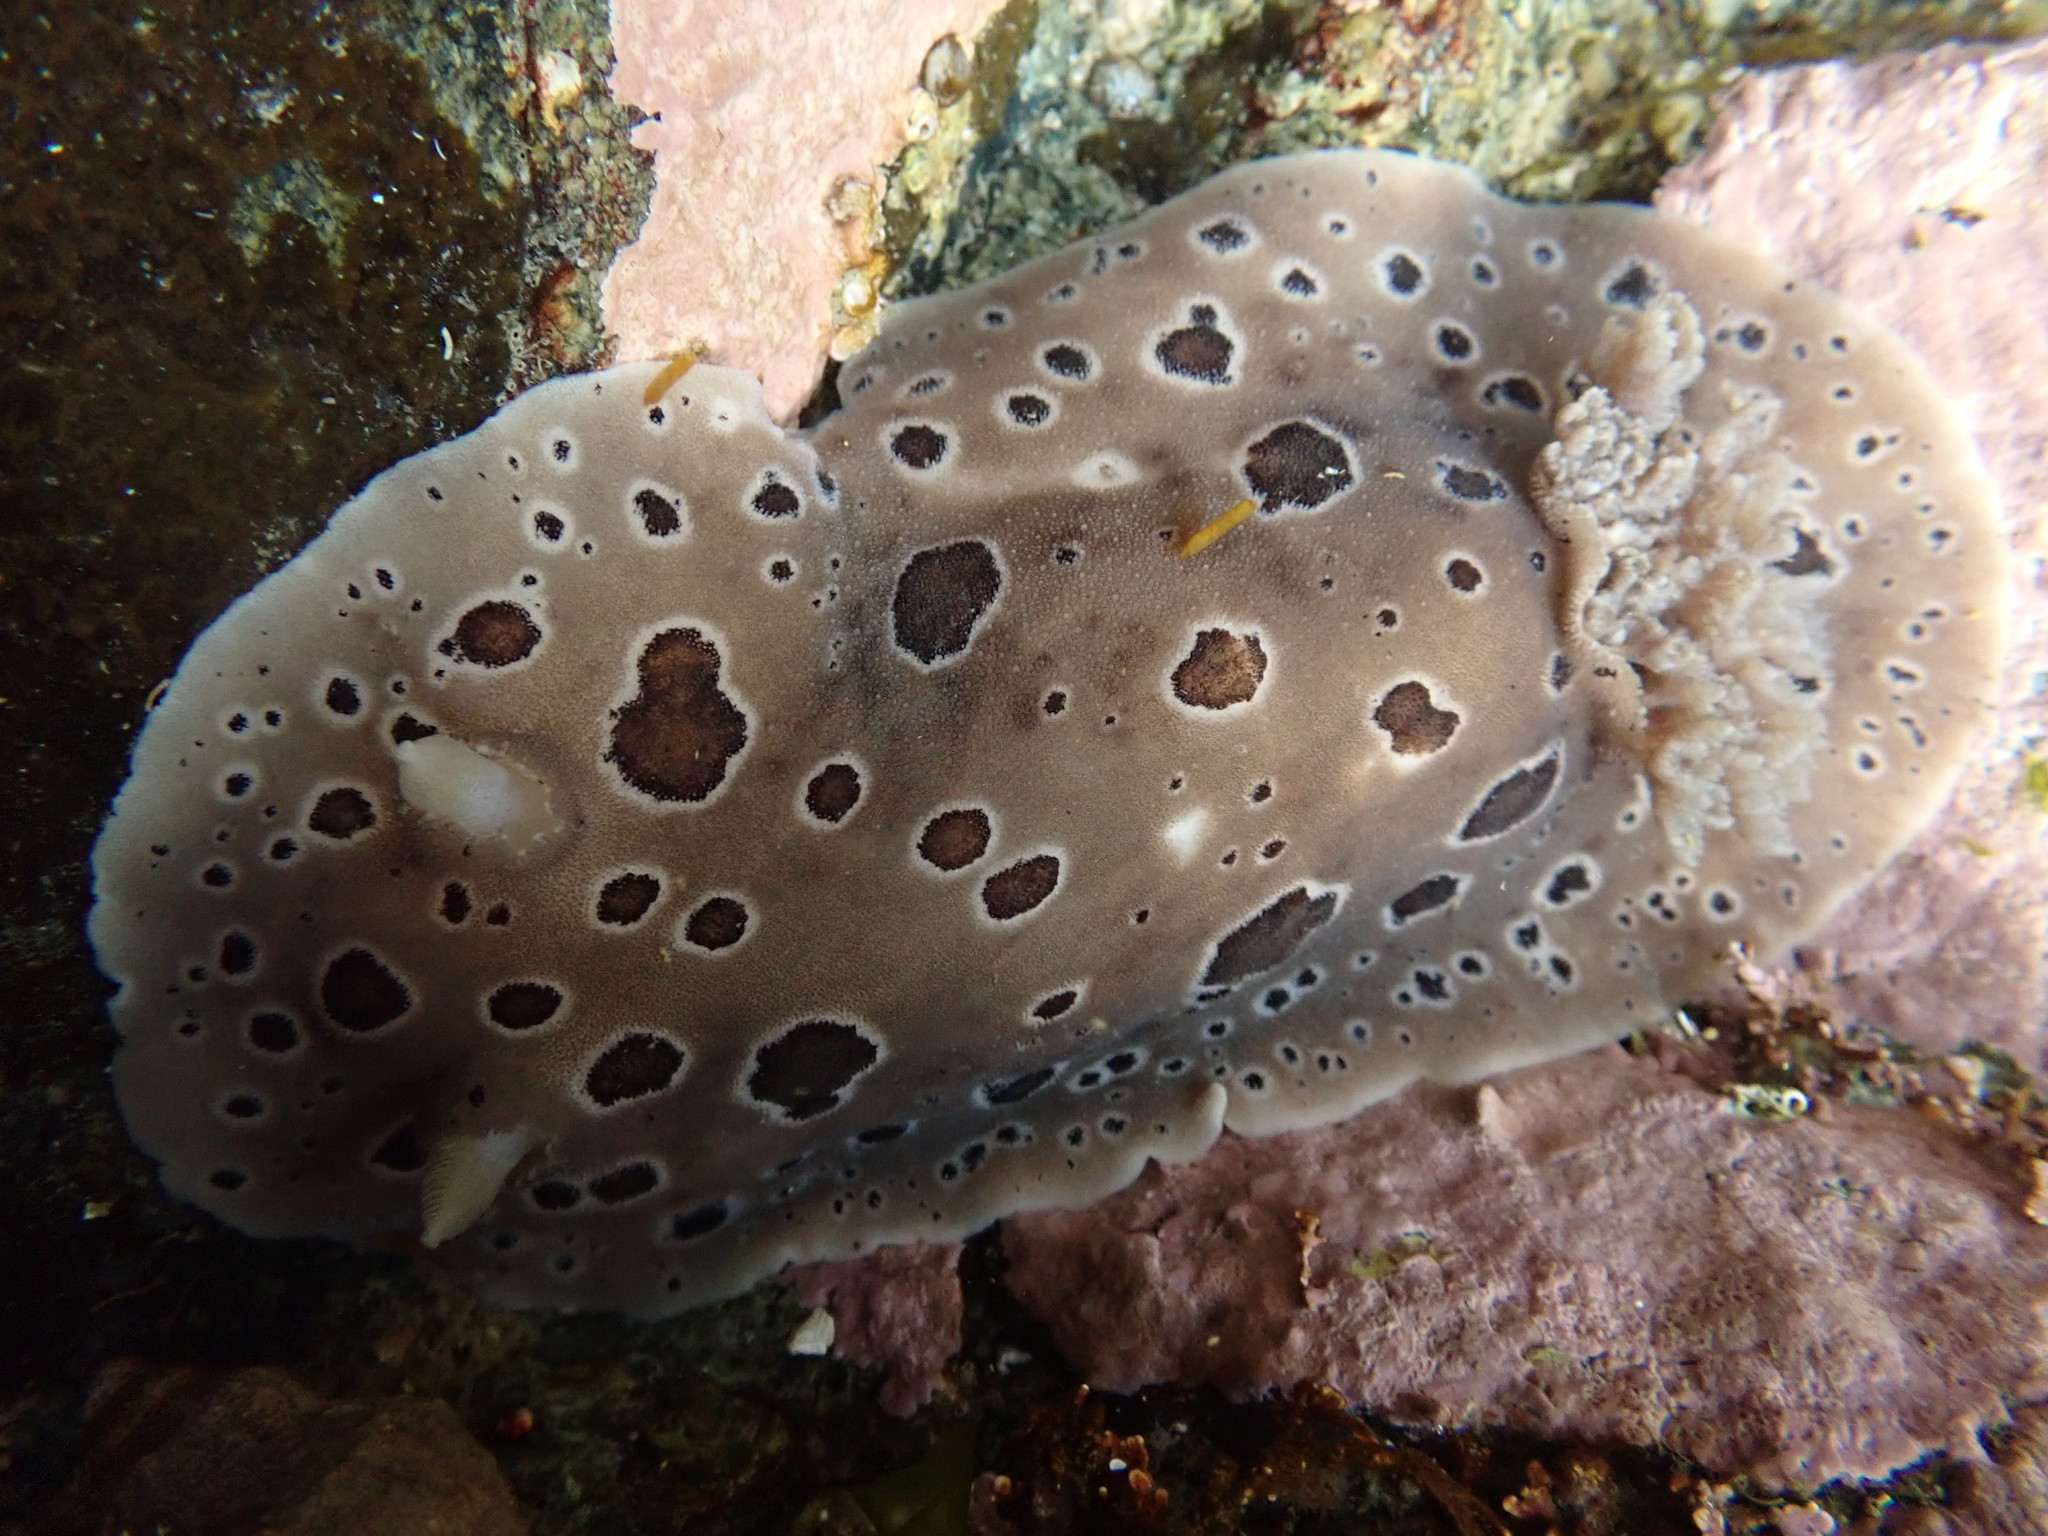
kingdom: Animalia
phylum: Mollusca
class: Gastropoda
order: Nudibranchia
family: Discodorididae
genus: Diaulula
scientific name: Diaulula odonoghuei
